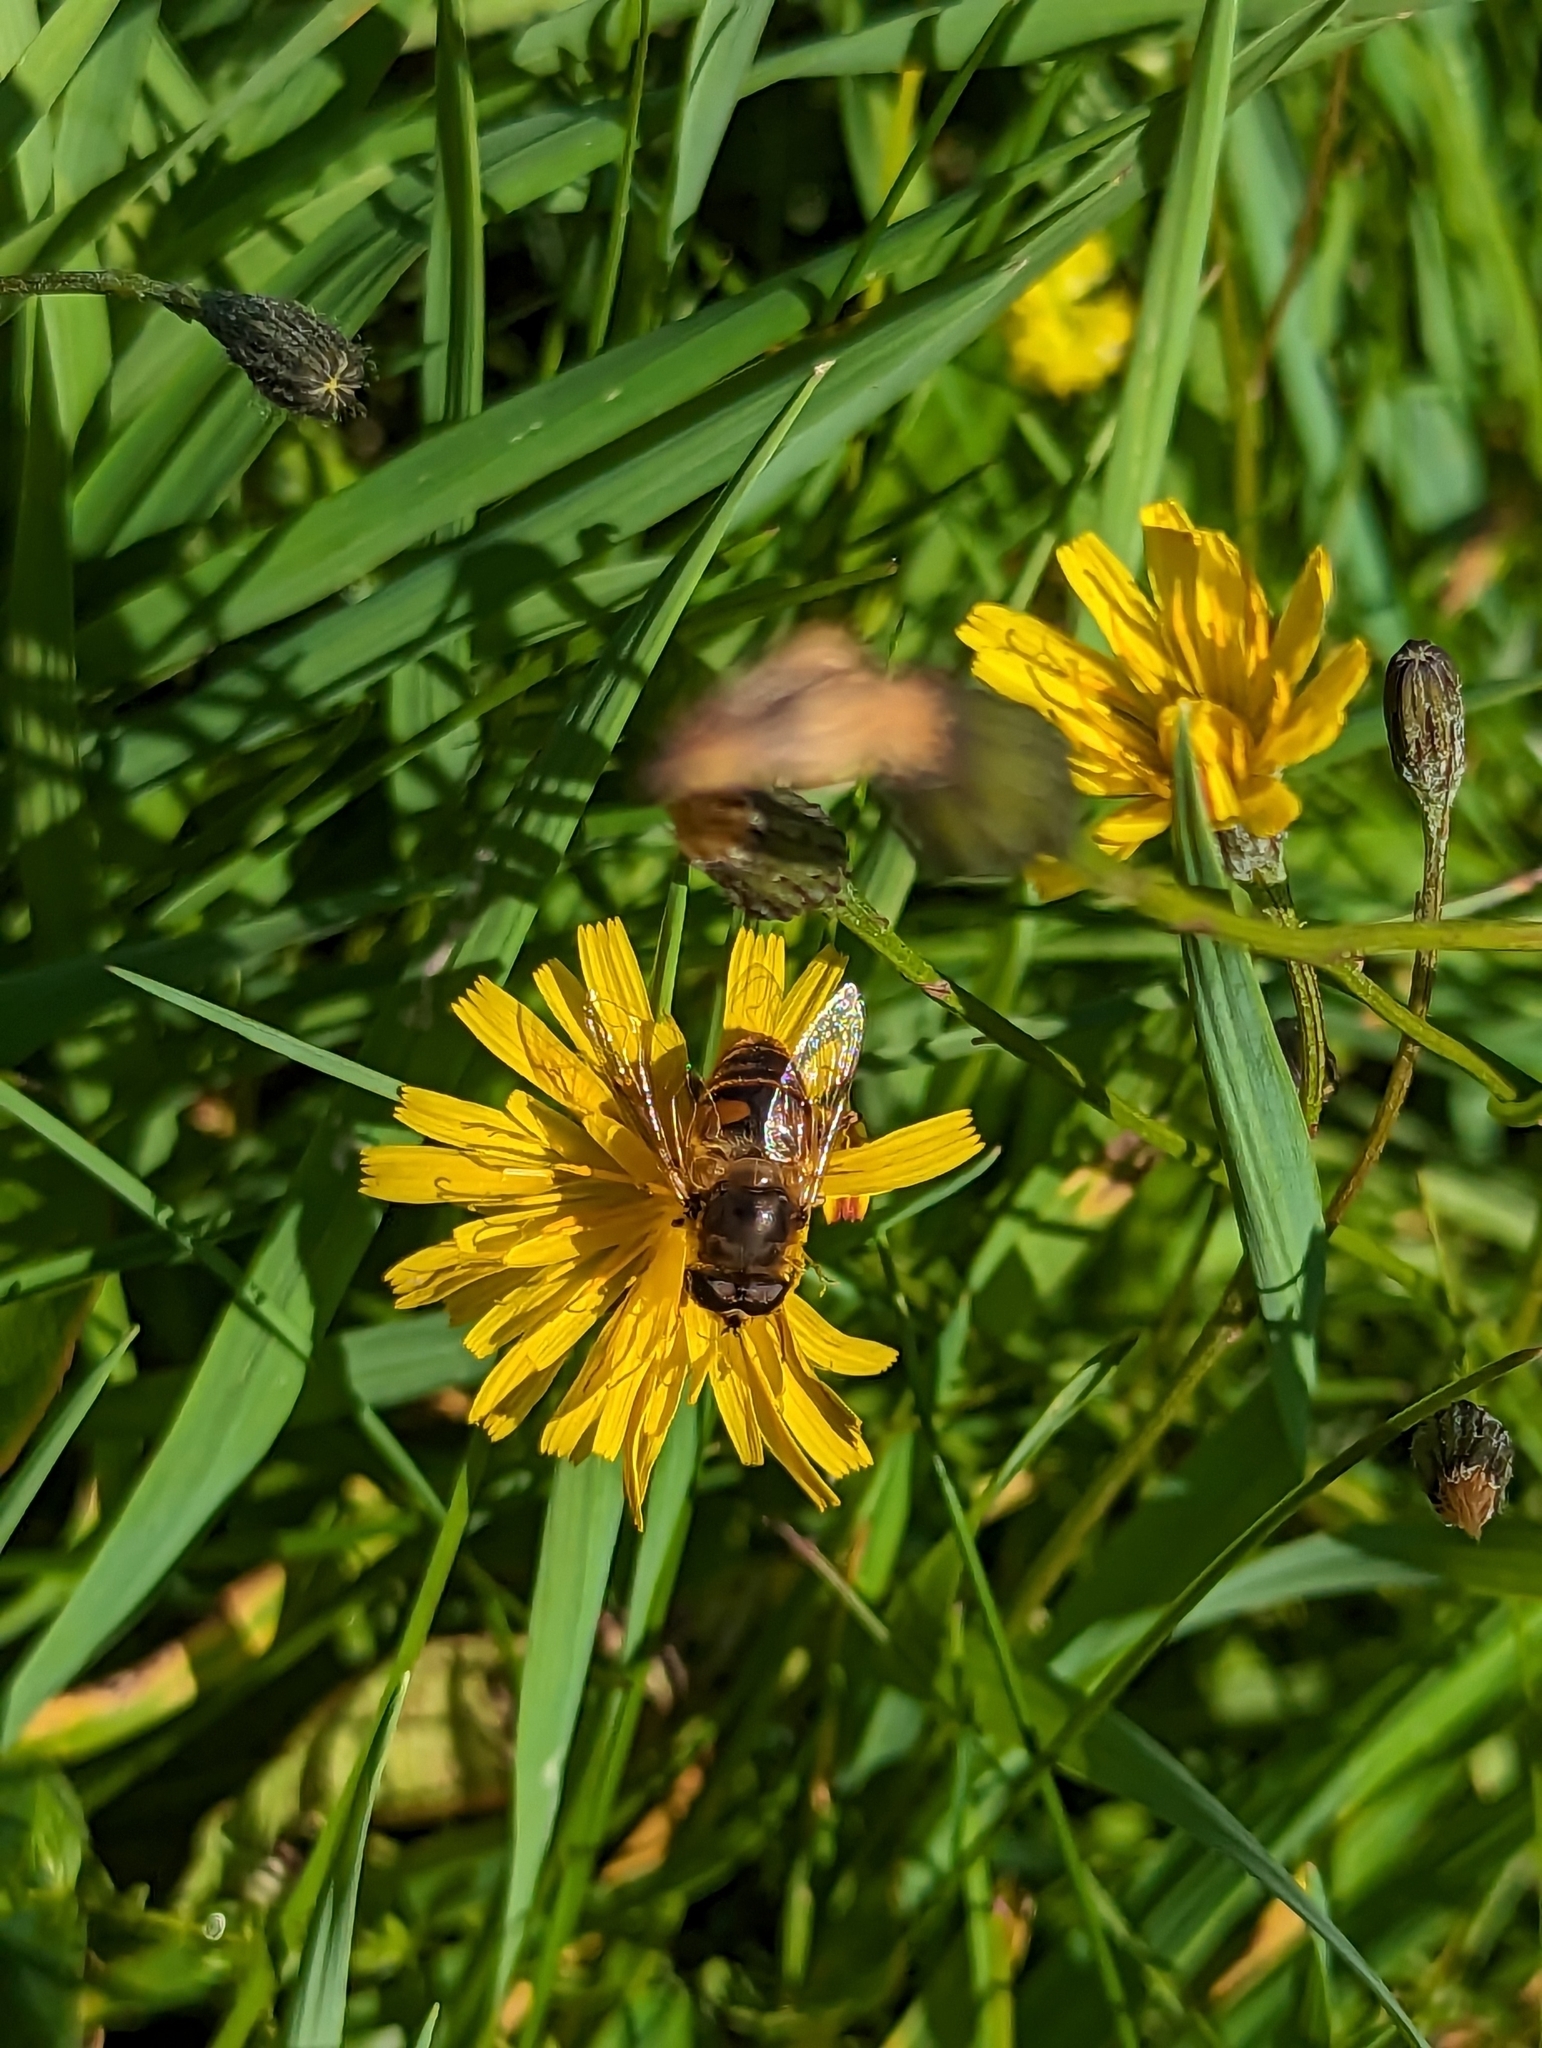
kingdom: Animalia
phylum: Arthropoda
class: Insecta
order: Diptera
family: Syrphidae
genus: Eristalis
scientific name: Eristalis tenax
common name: Drone fly
